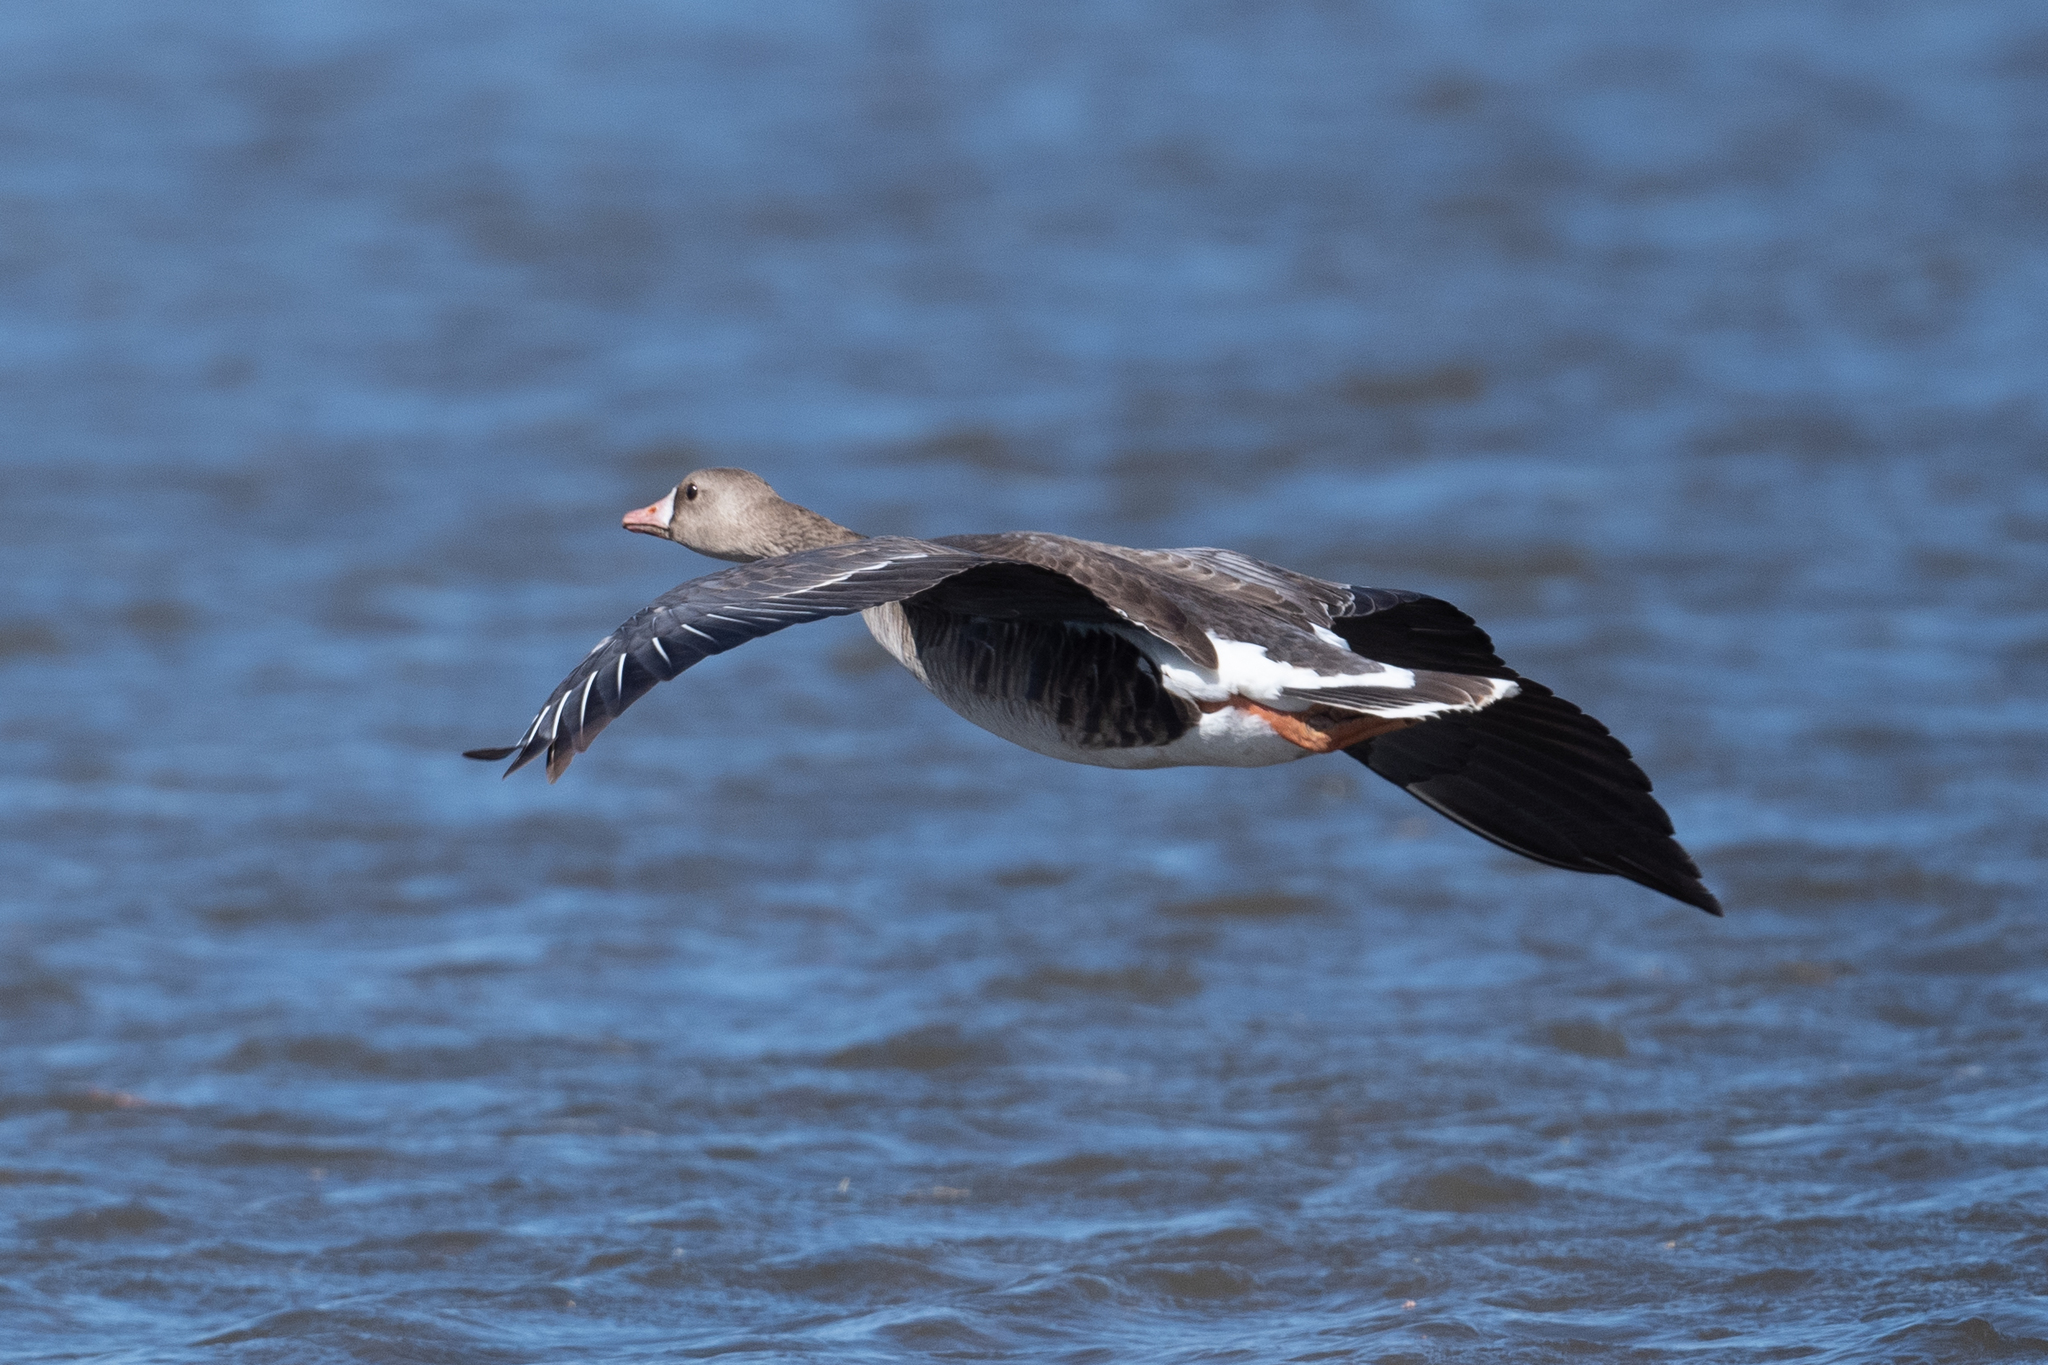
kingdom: Animalia
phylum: Chordata
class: Aves
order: Anseriformes
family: Anatidae
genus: Anser
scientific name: Anser albifrons
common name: Greater white-fronted goose
